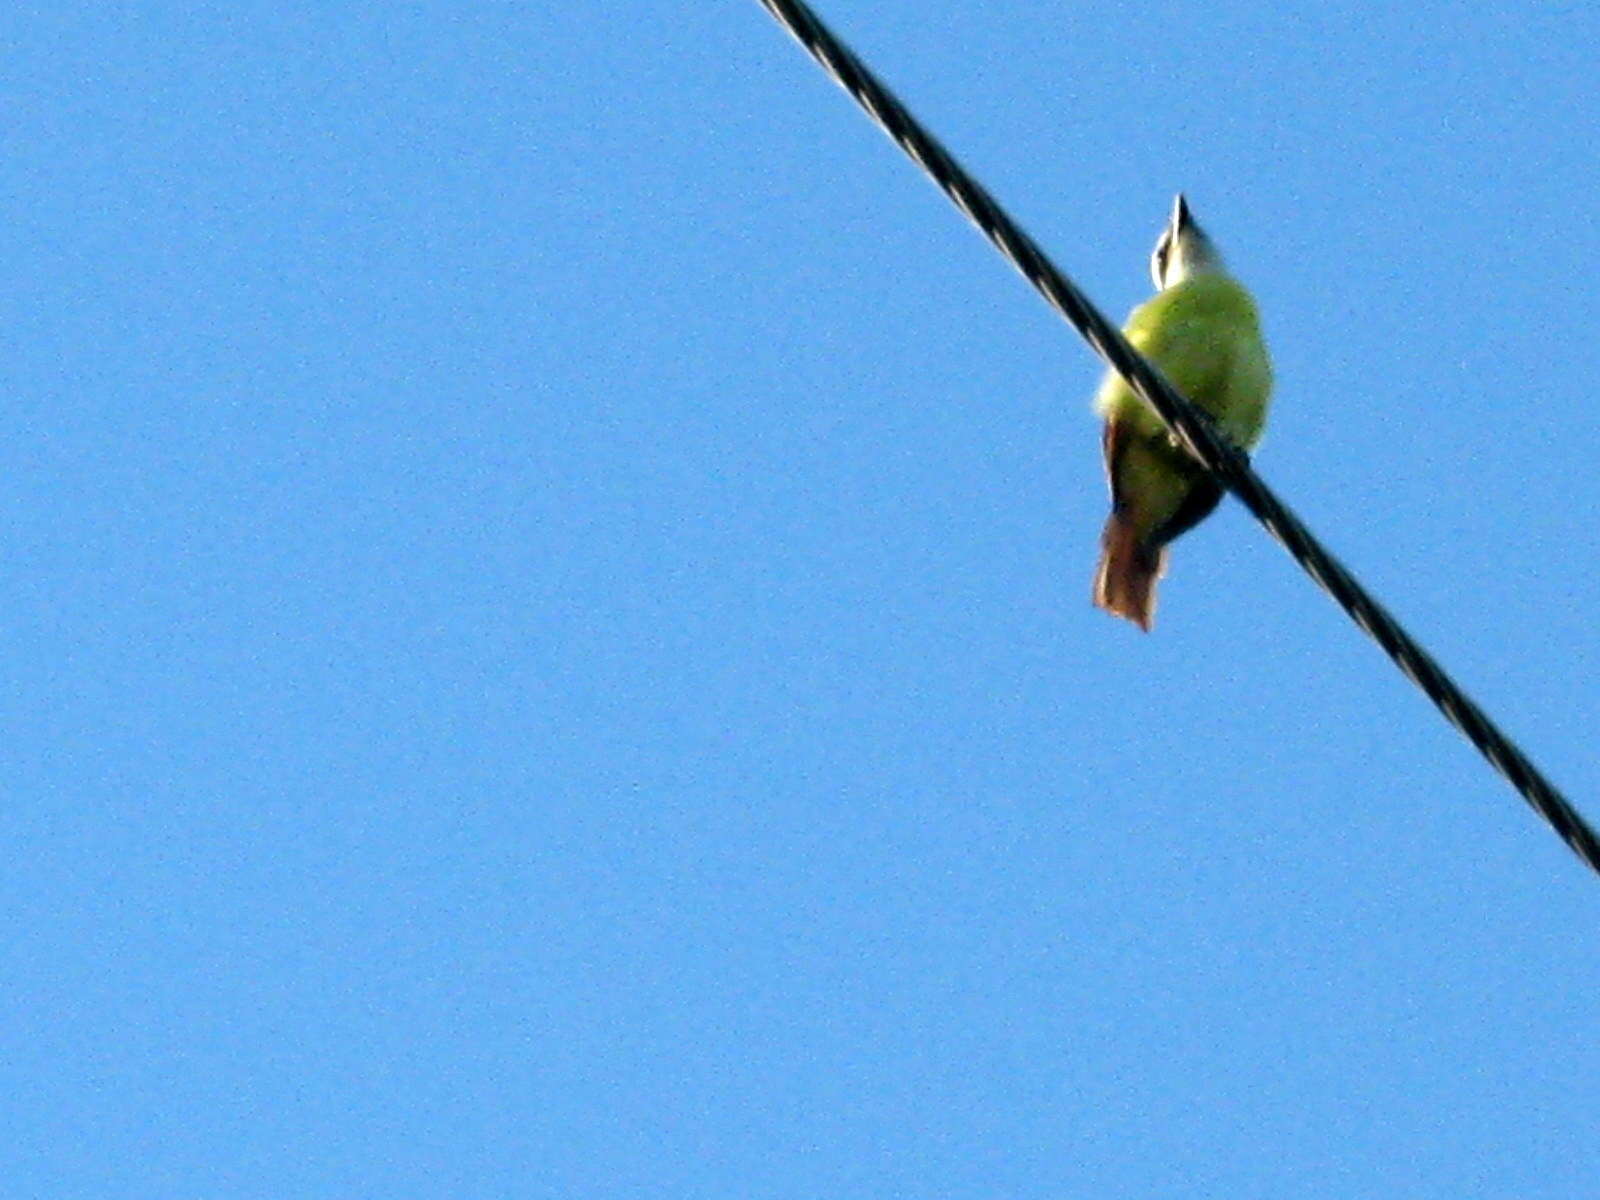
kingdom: Animalia
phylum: Chordata
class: Aves
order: Passeriformes
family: Tyrannidae
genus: Myiozetetes
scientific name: Myiozetetes similis
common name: Social flycatcher
